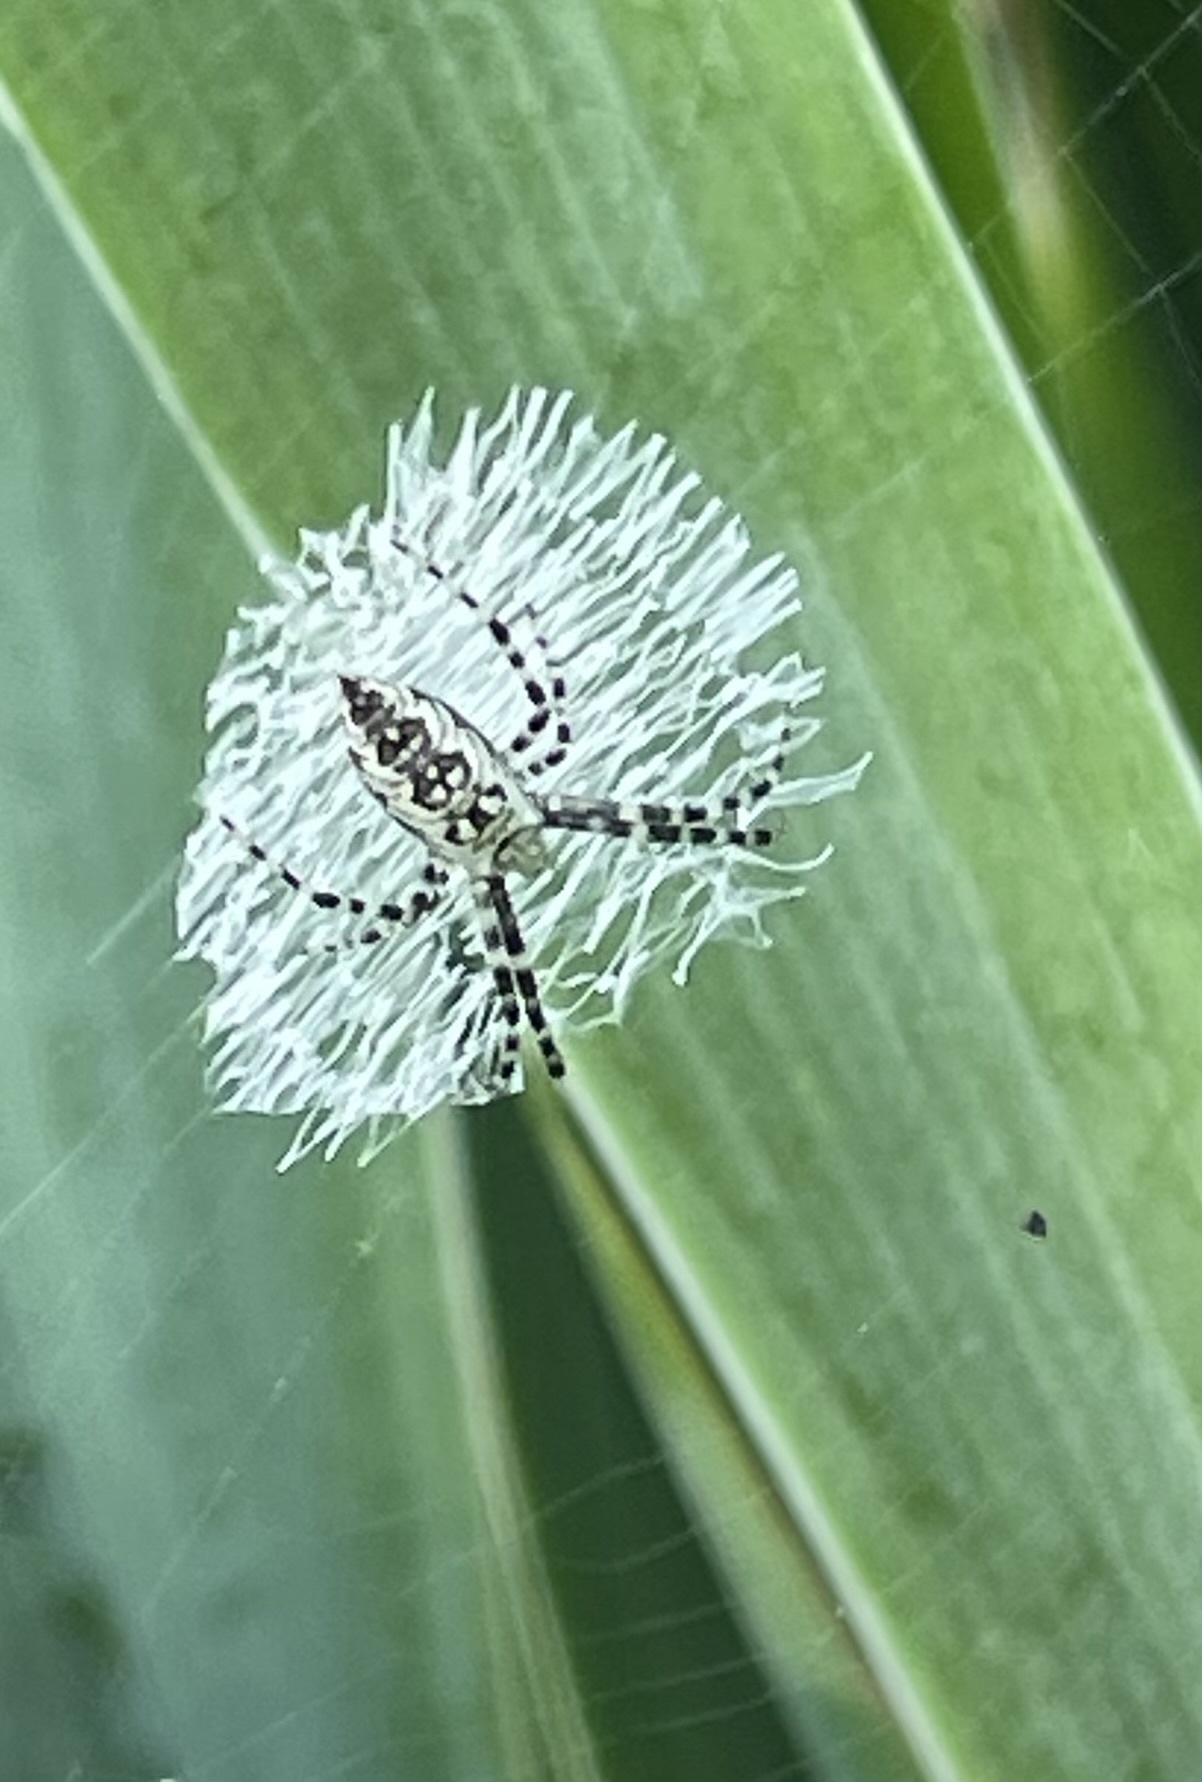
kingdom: Animalia
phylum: Arthropoda
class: Arachnida
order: Araneae
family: Araneidae
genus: Argiope
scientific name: Argiope aurantia
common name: Orb weavers
